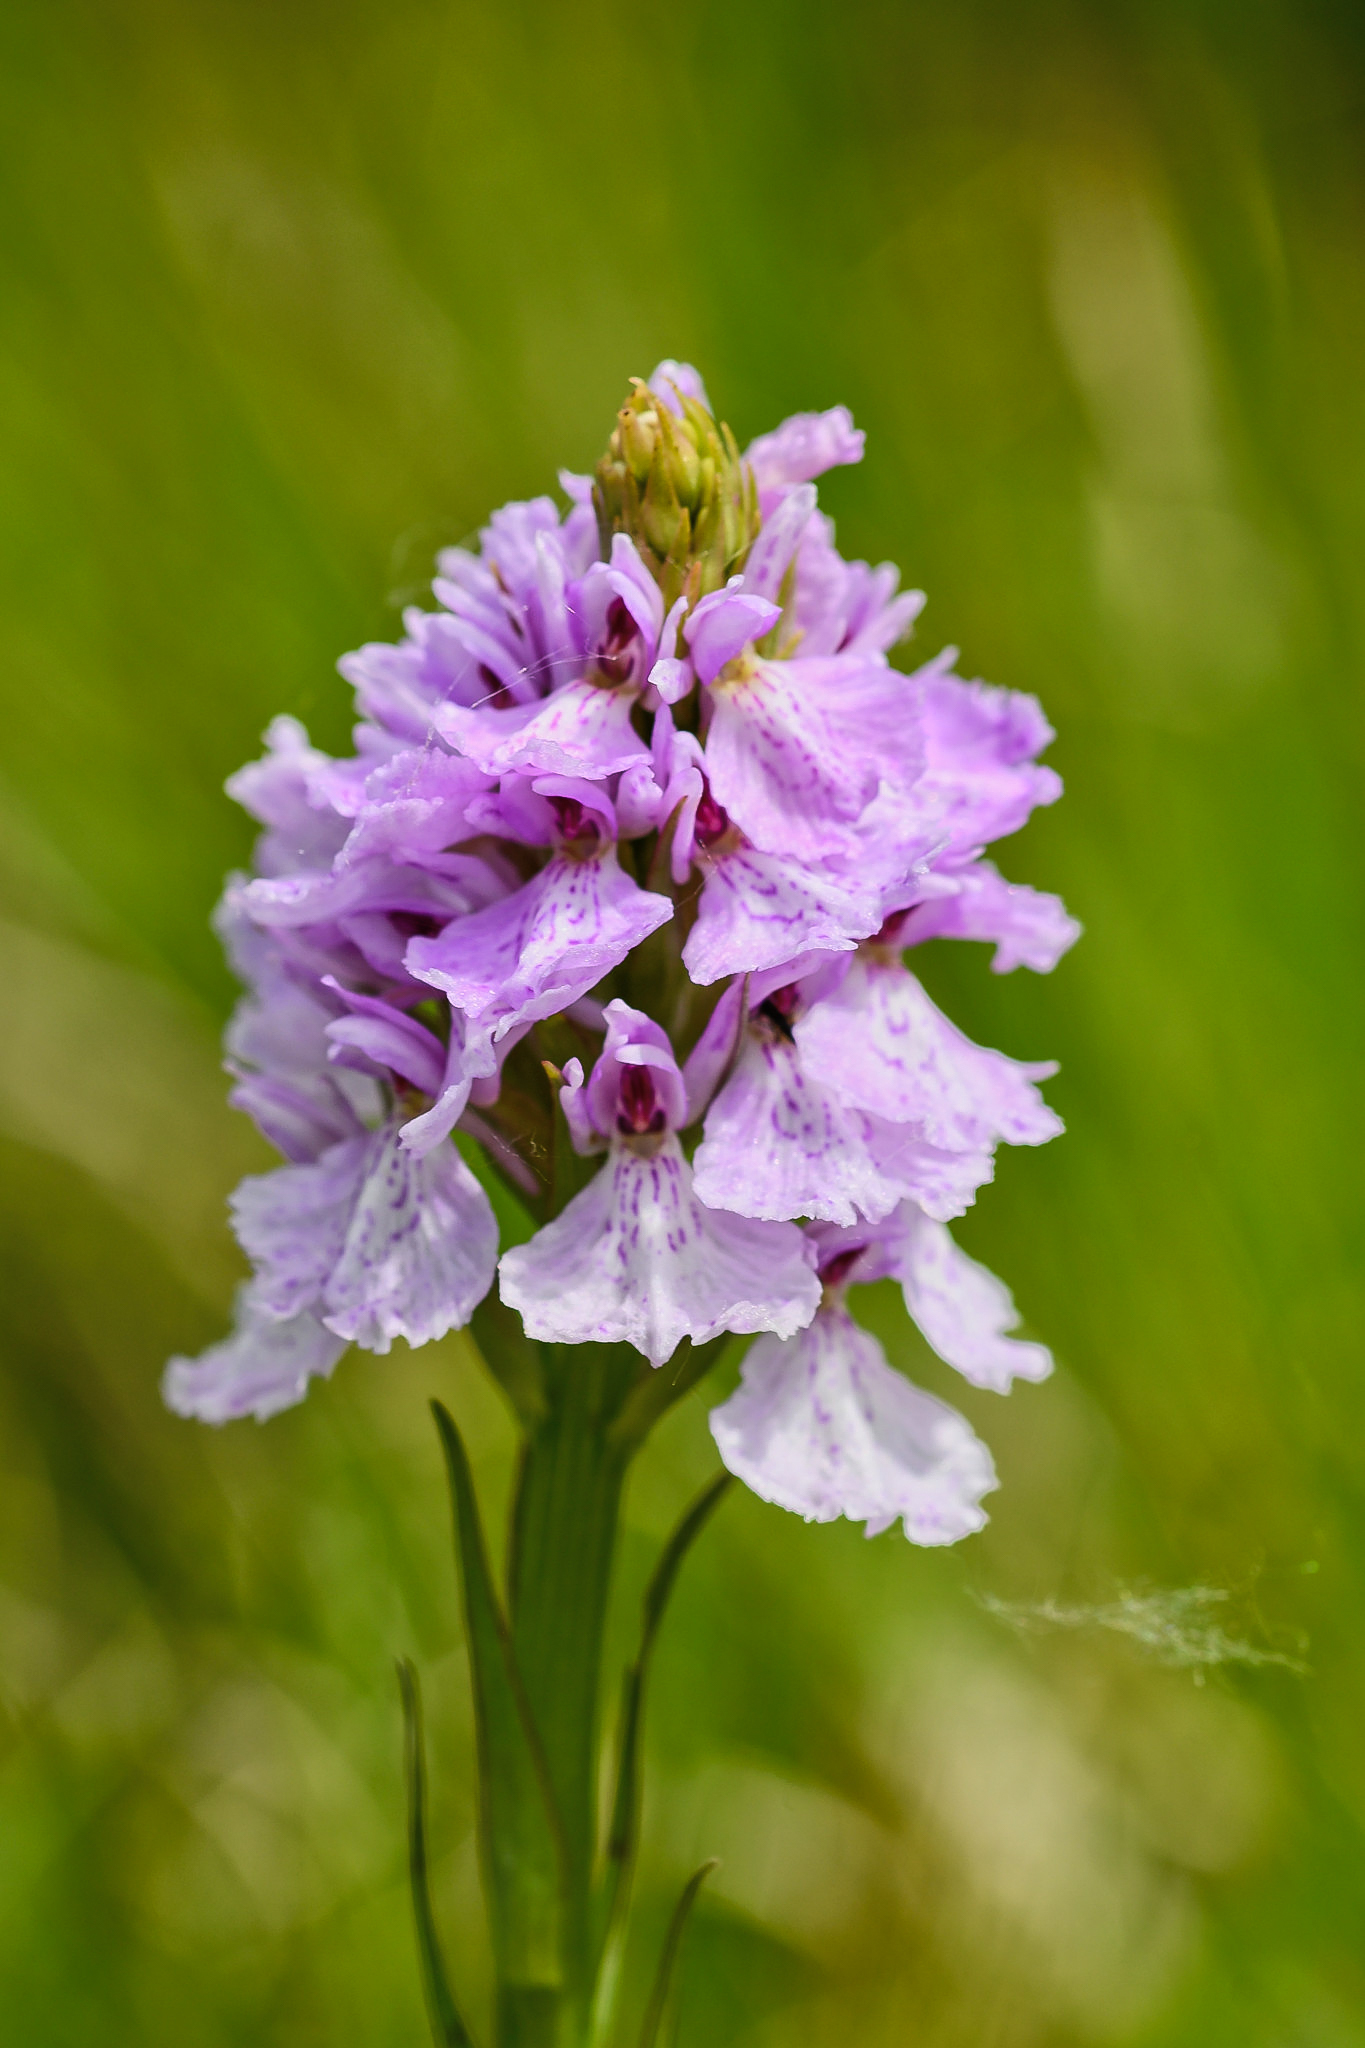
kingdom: Plantae
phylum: Tracheophyta
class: Liliopsida
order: Asparagales
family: Orchidaceae
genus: Dactylorhiza
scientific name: Dactylorhiza maculata
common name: Heath spotted-orchid
